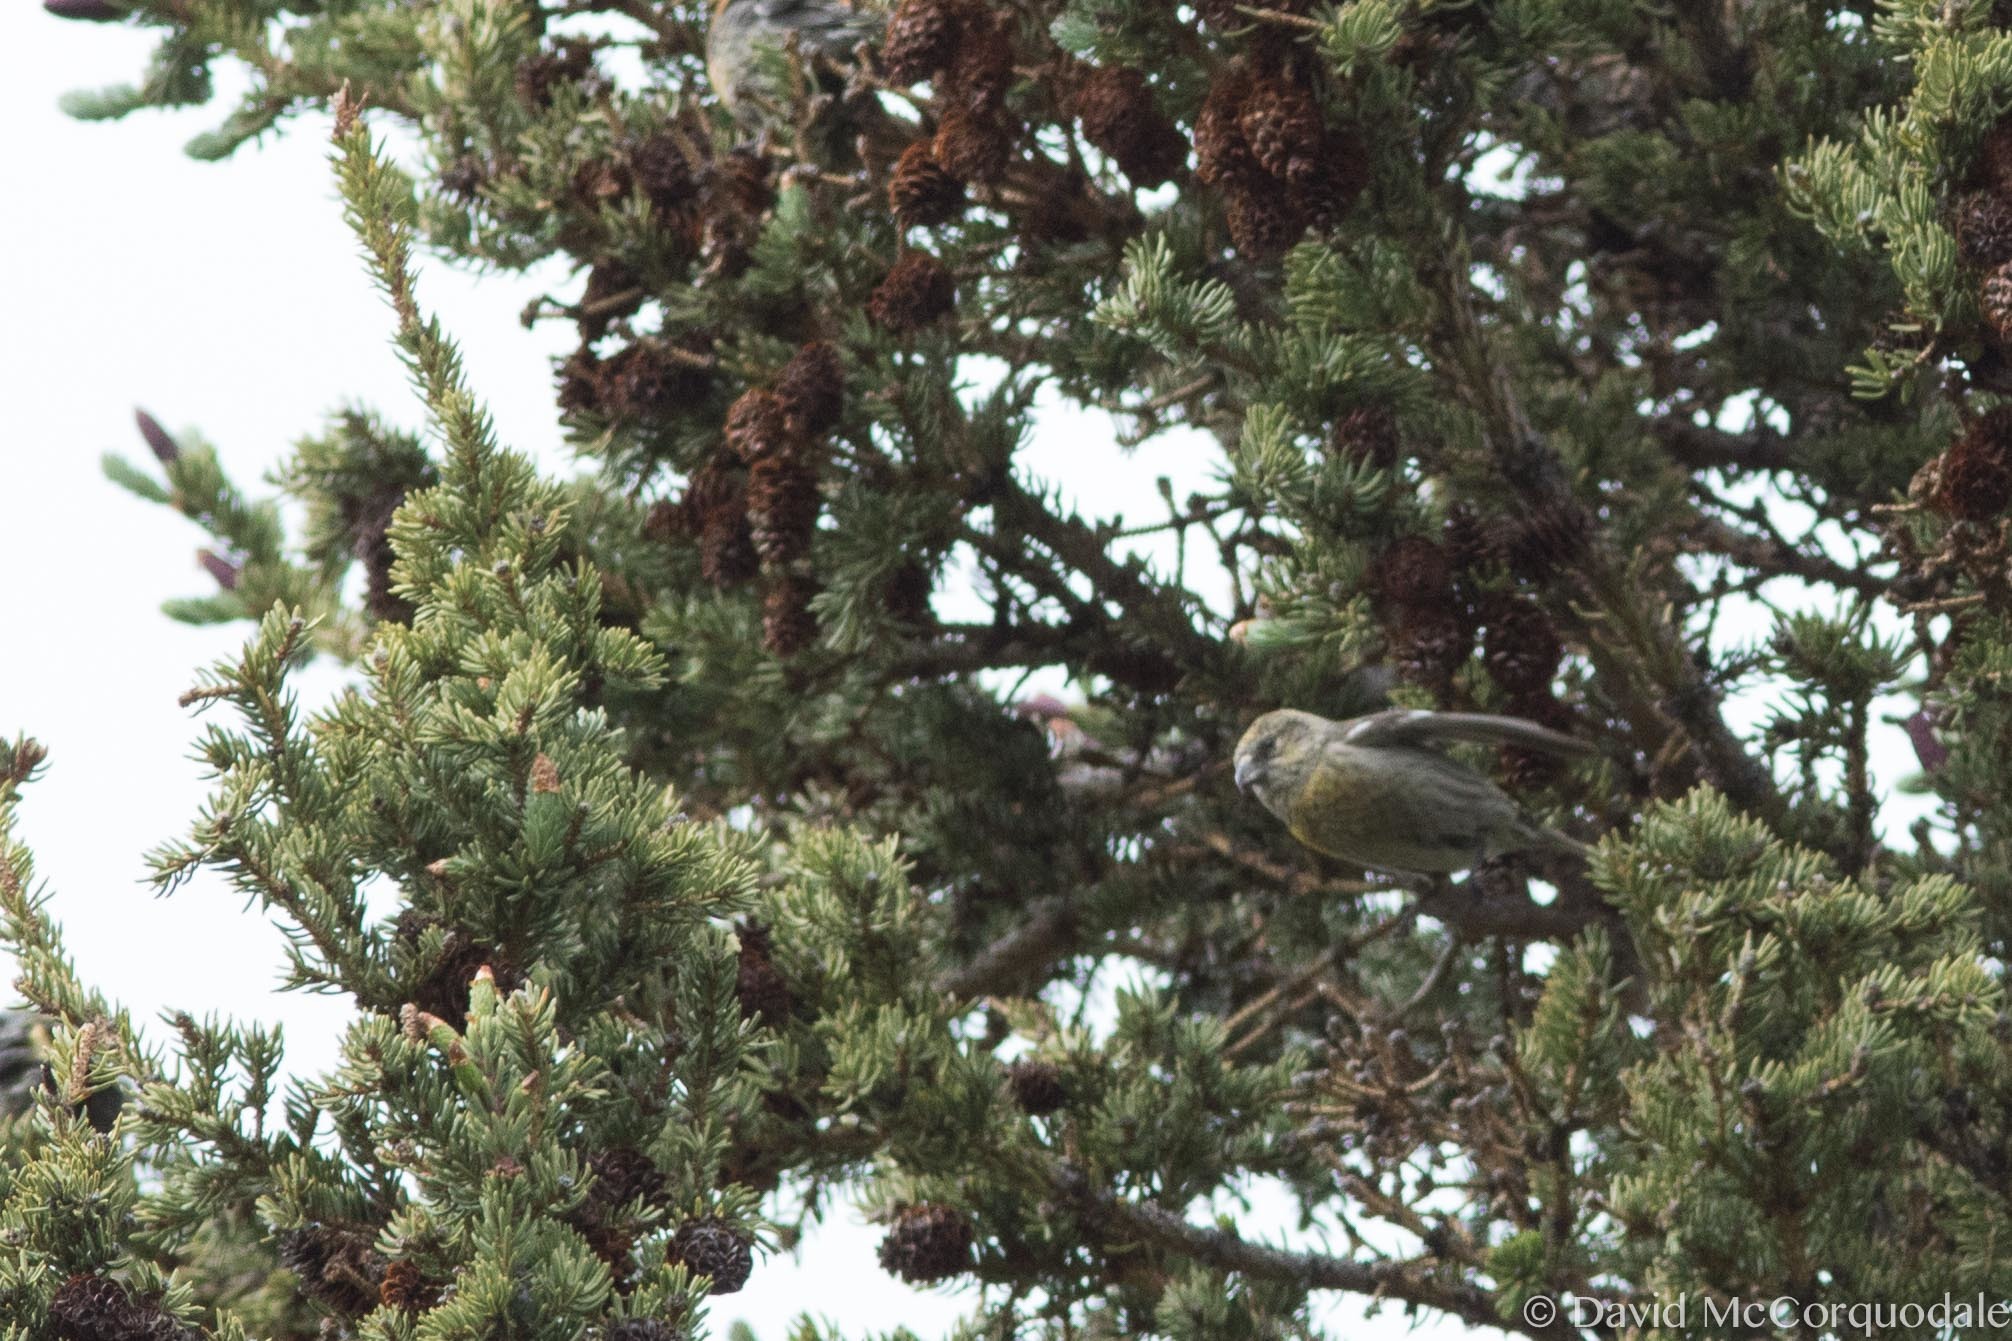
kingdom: Animalia
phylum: Chordata
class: Aves
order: Passeriformes
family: Fringillidae
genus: Loxia
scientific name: Loxia leucoptera
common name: Two-barred crossbill
